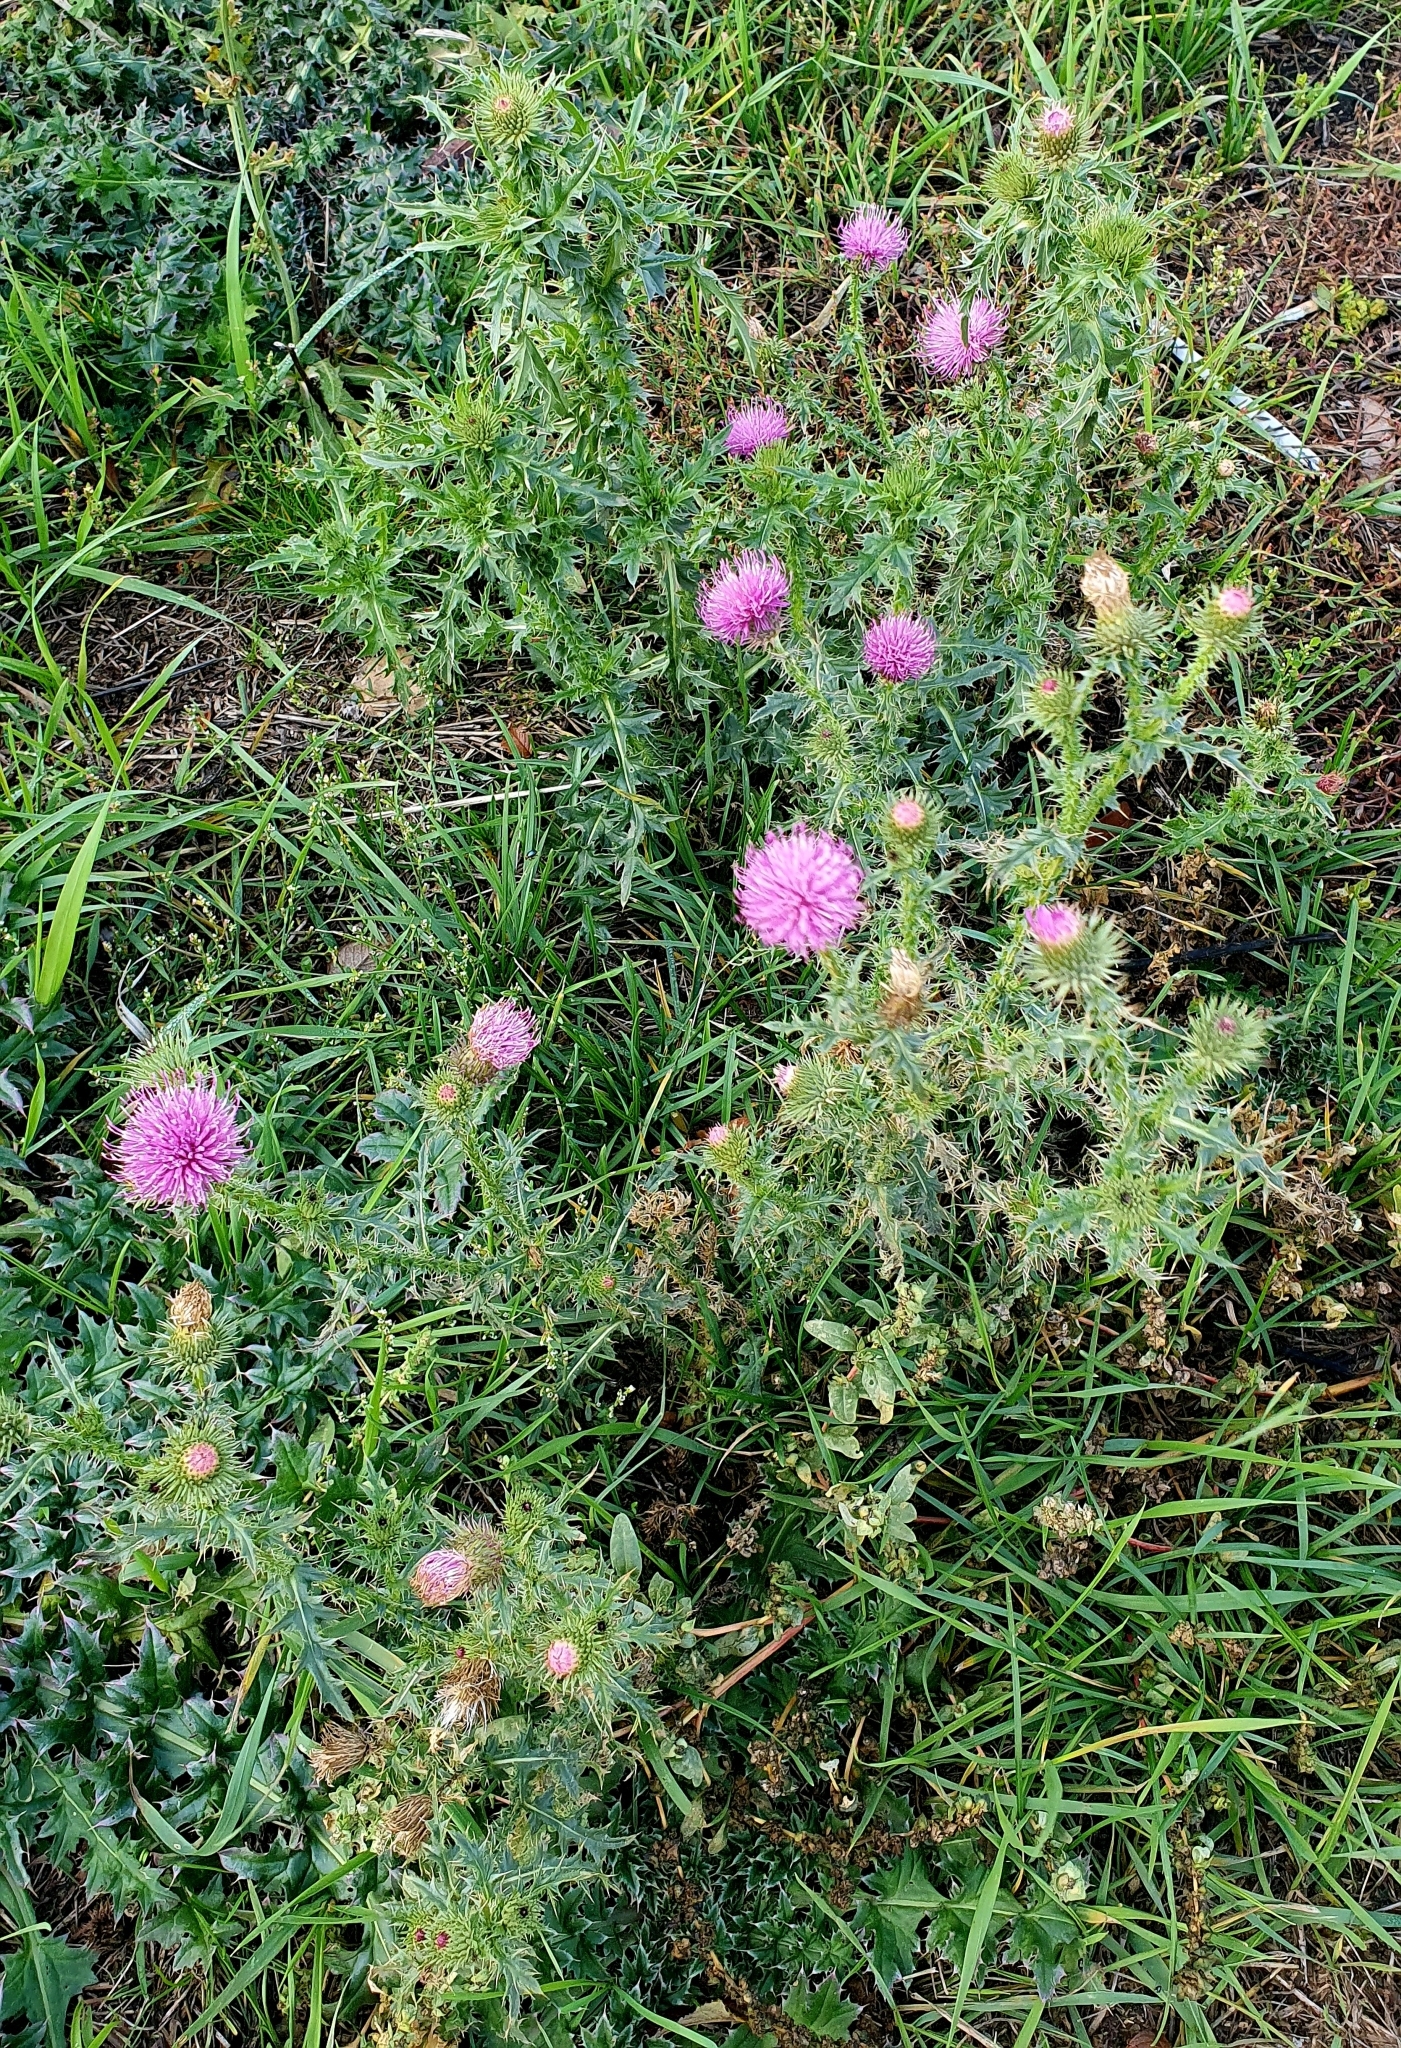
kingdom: Plantae
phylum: Tracheophyta
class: Magnoliopsida
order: Asterales
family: Asteraceae
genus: Carduus
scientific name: Carduus acanthoides
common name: Plumeless thistle
